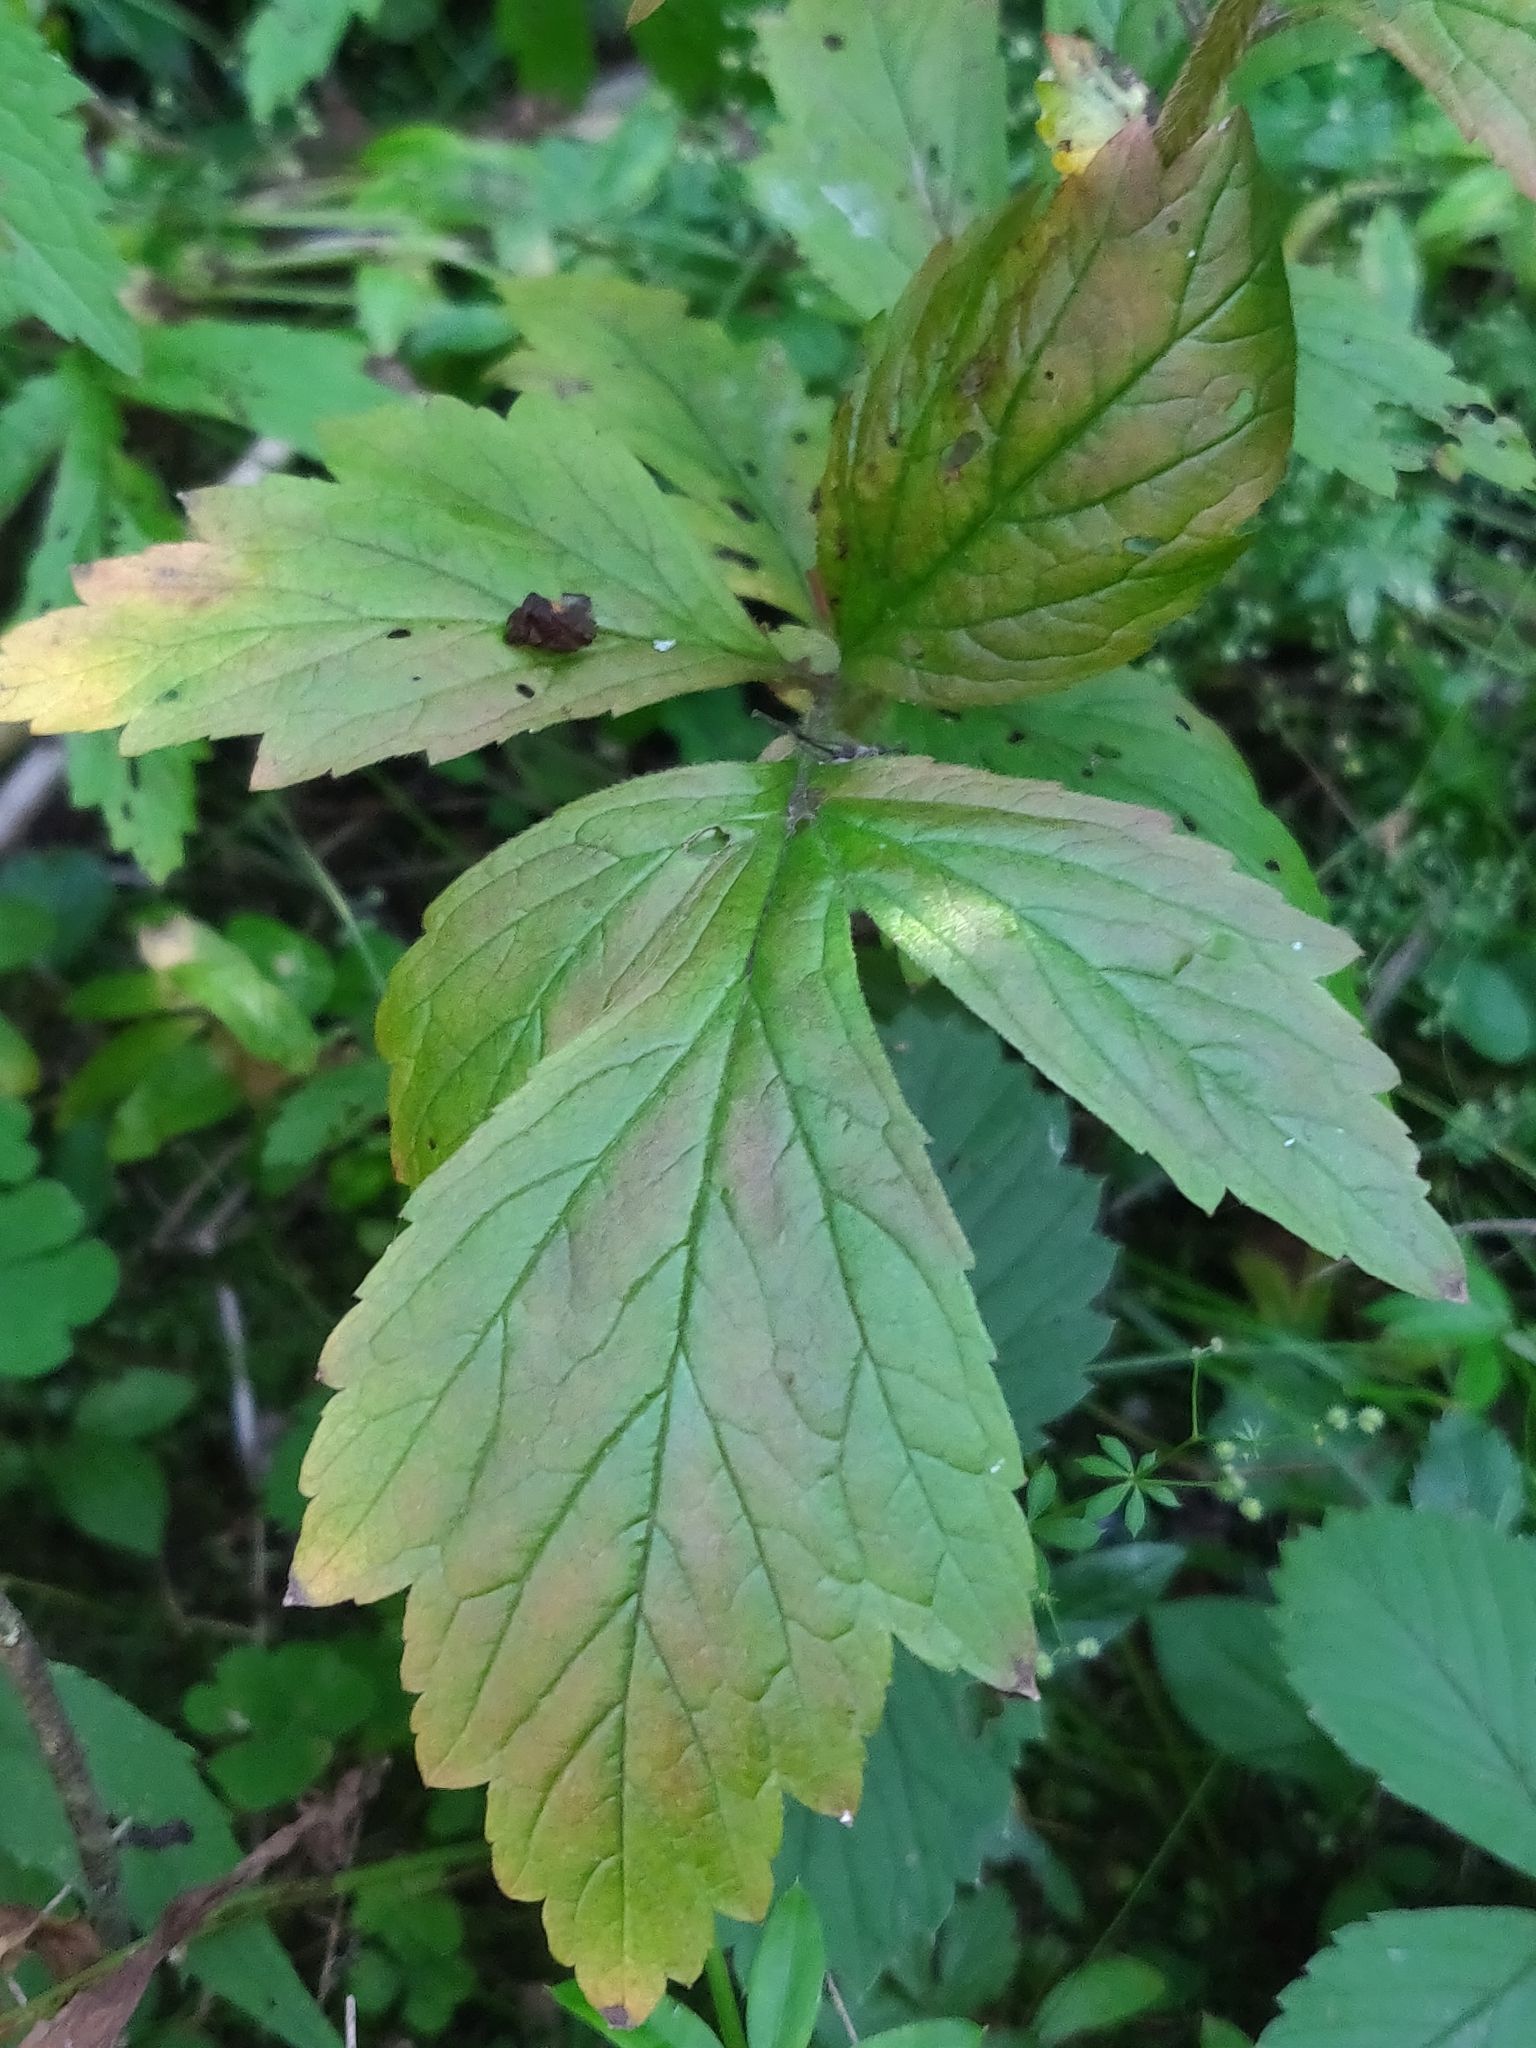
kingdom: Plantae
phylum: Tracheophyta
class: Magnoliopsida
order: Rosales
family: Rosaceae
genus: Geum
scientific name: Geum laciniatum
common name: Rough avens
